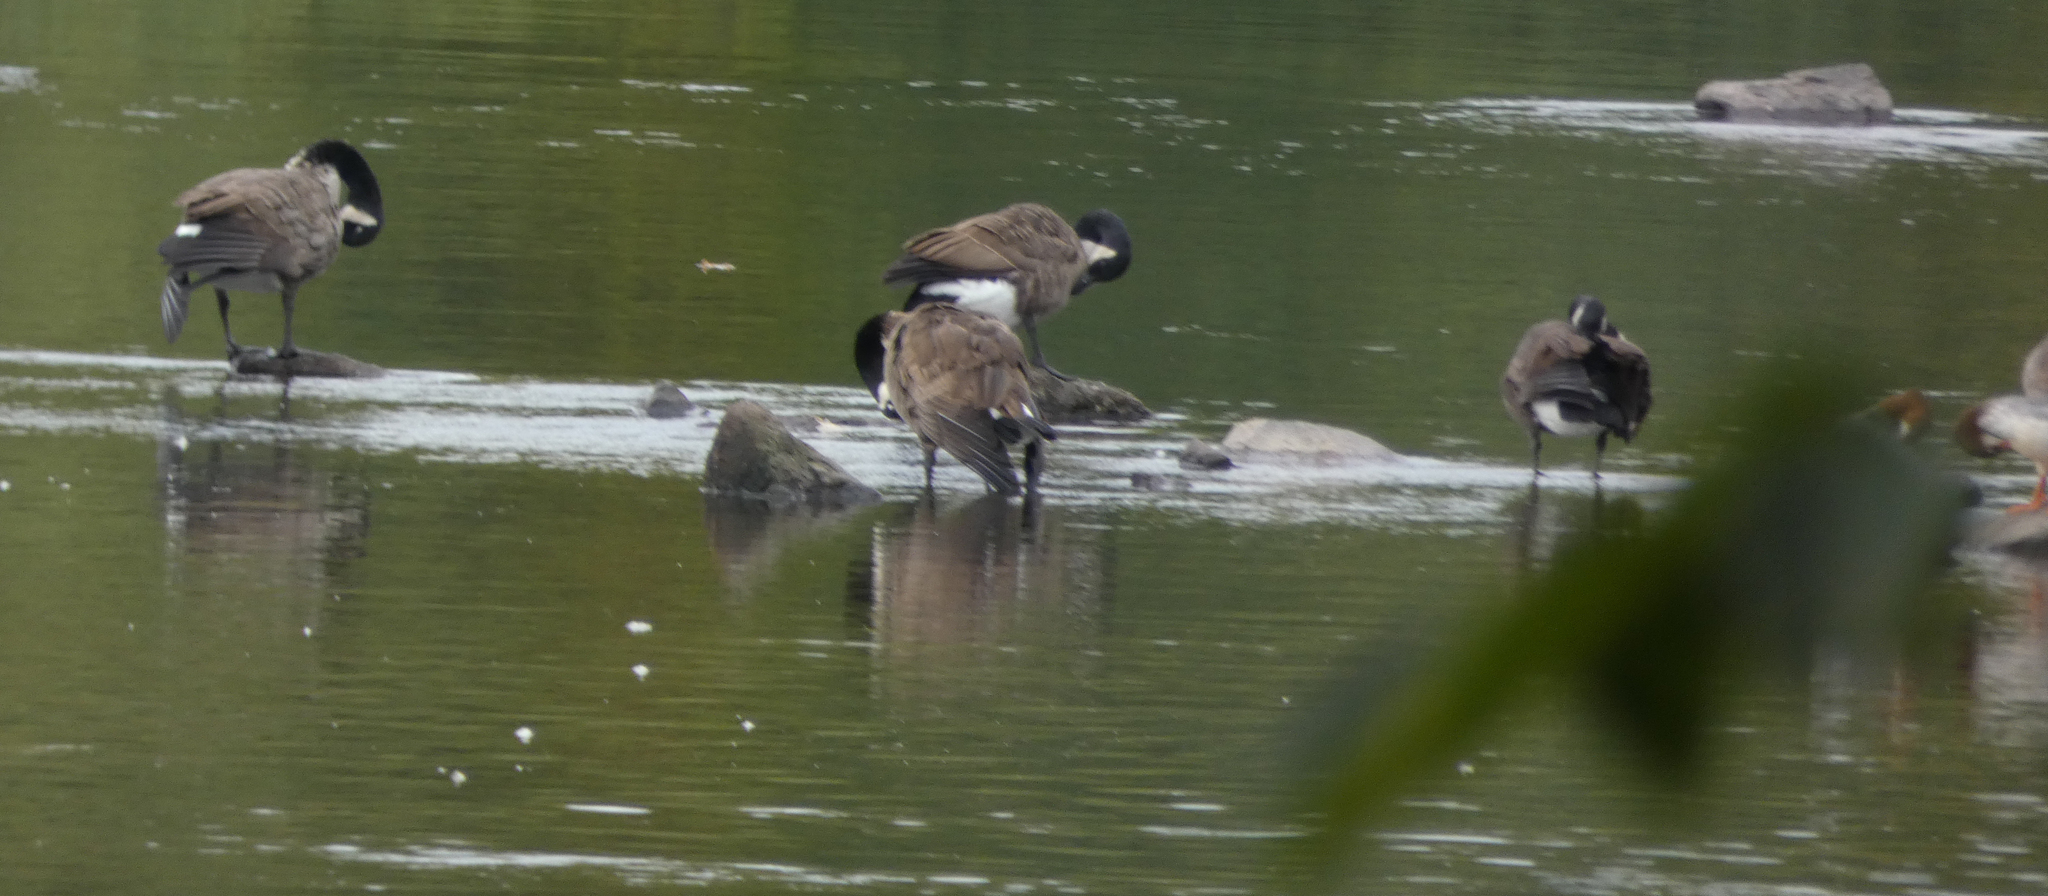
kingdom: Animalia
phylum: Chordata
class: Aves
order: Anseriformes
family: Anatidae
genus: Branta
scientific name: Branta canadensis
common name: Canada goose
